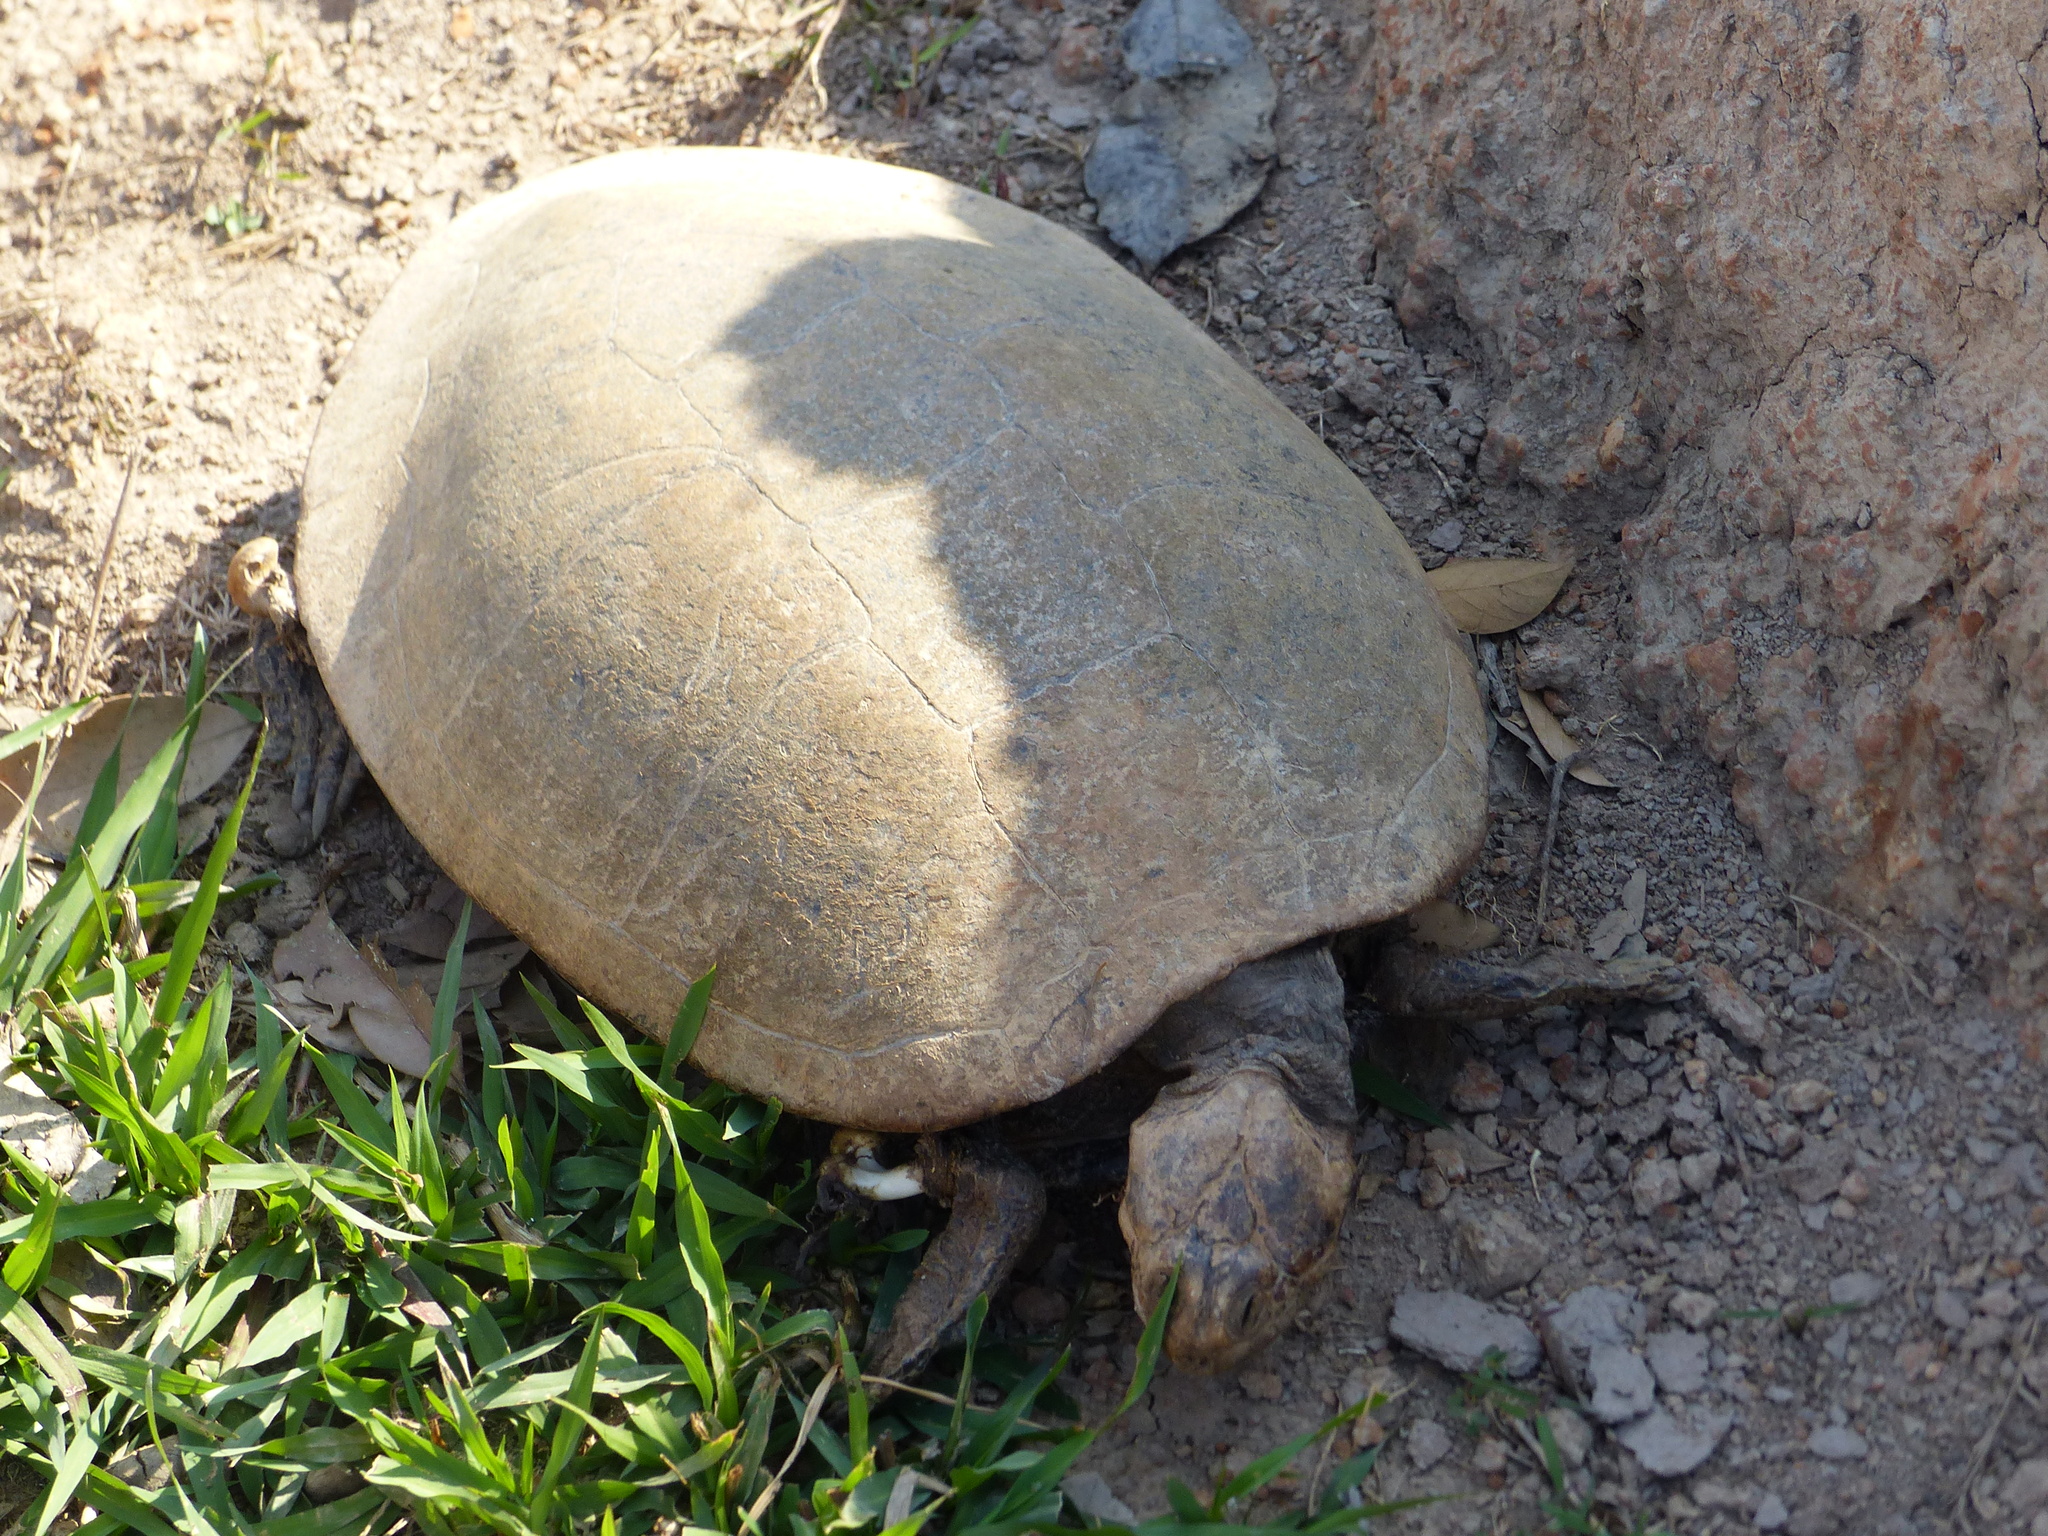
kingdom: Animalia
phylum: Chordata
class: Testudines
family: Podocnemididae
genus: Podocnemis
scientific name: Podocnemis vogli
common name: Savanna side-necked turtle
